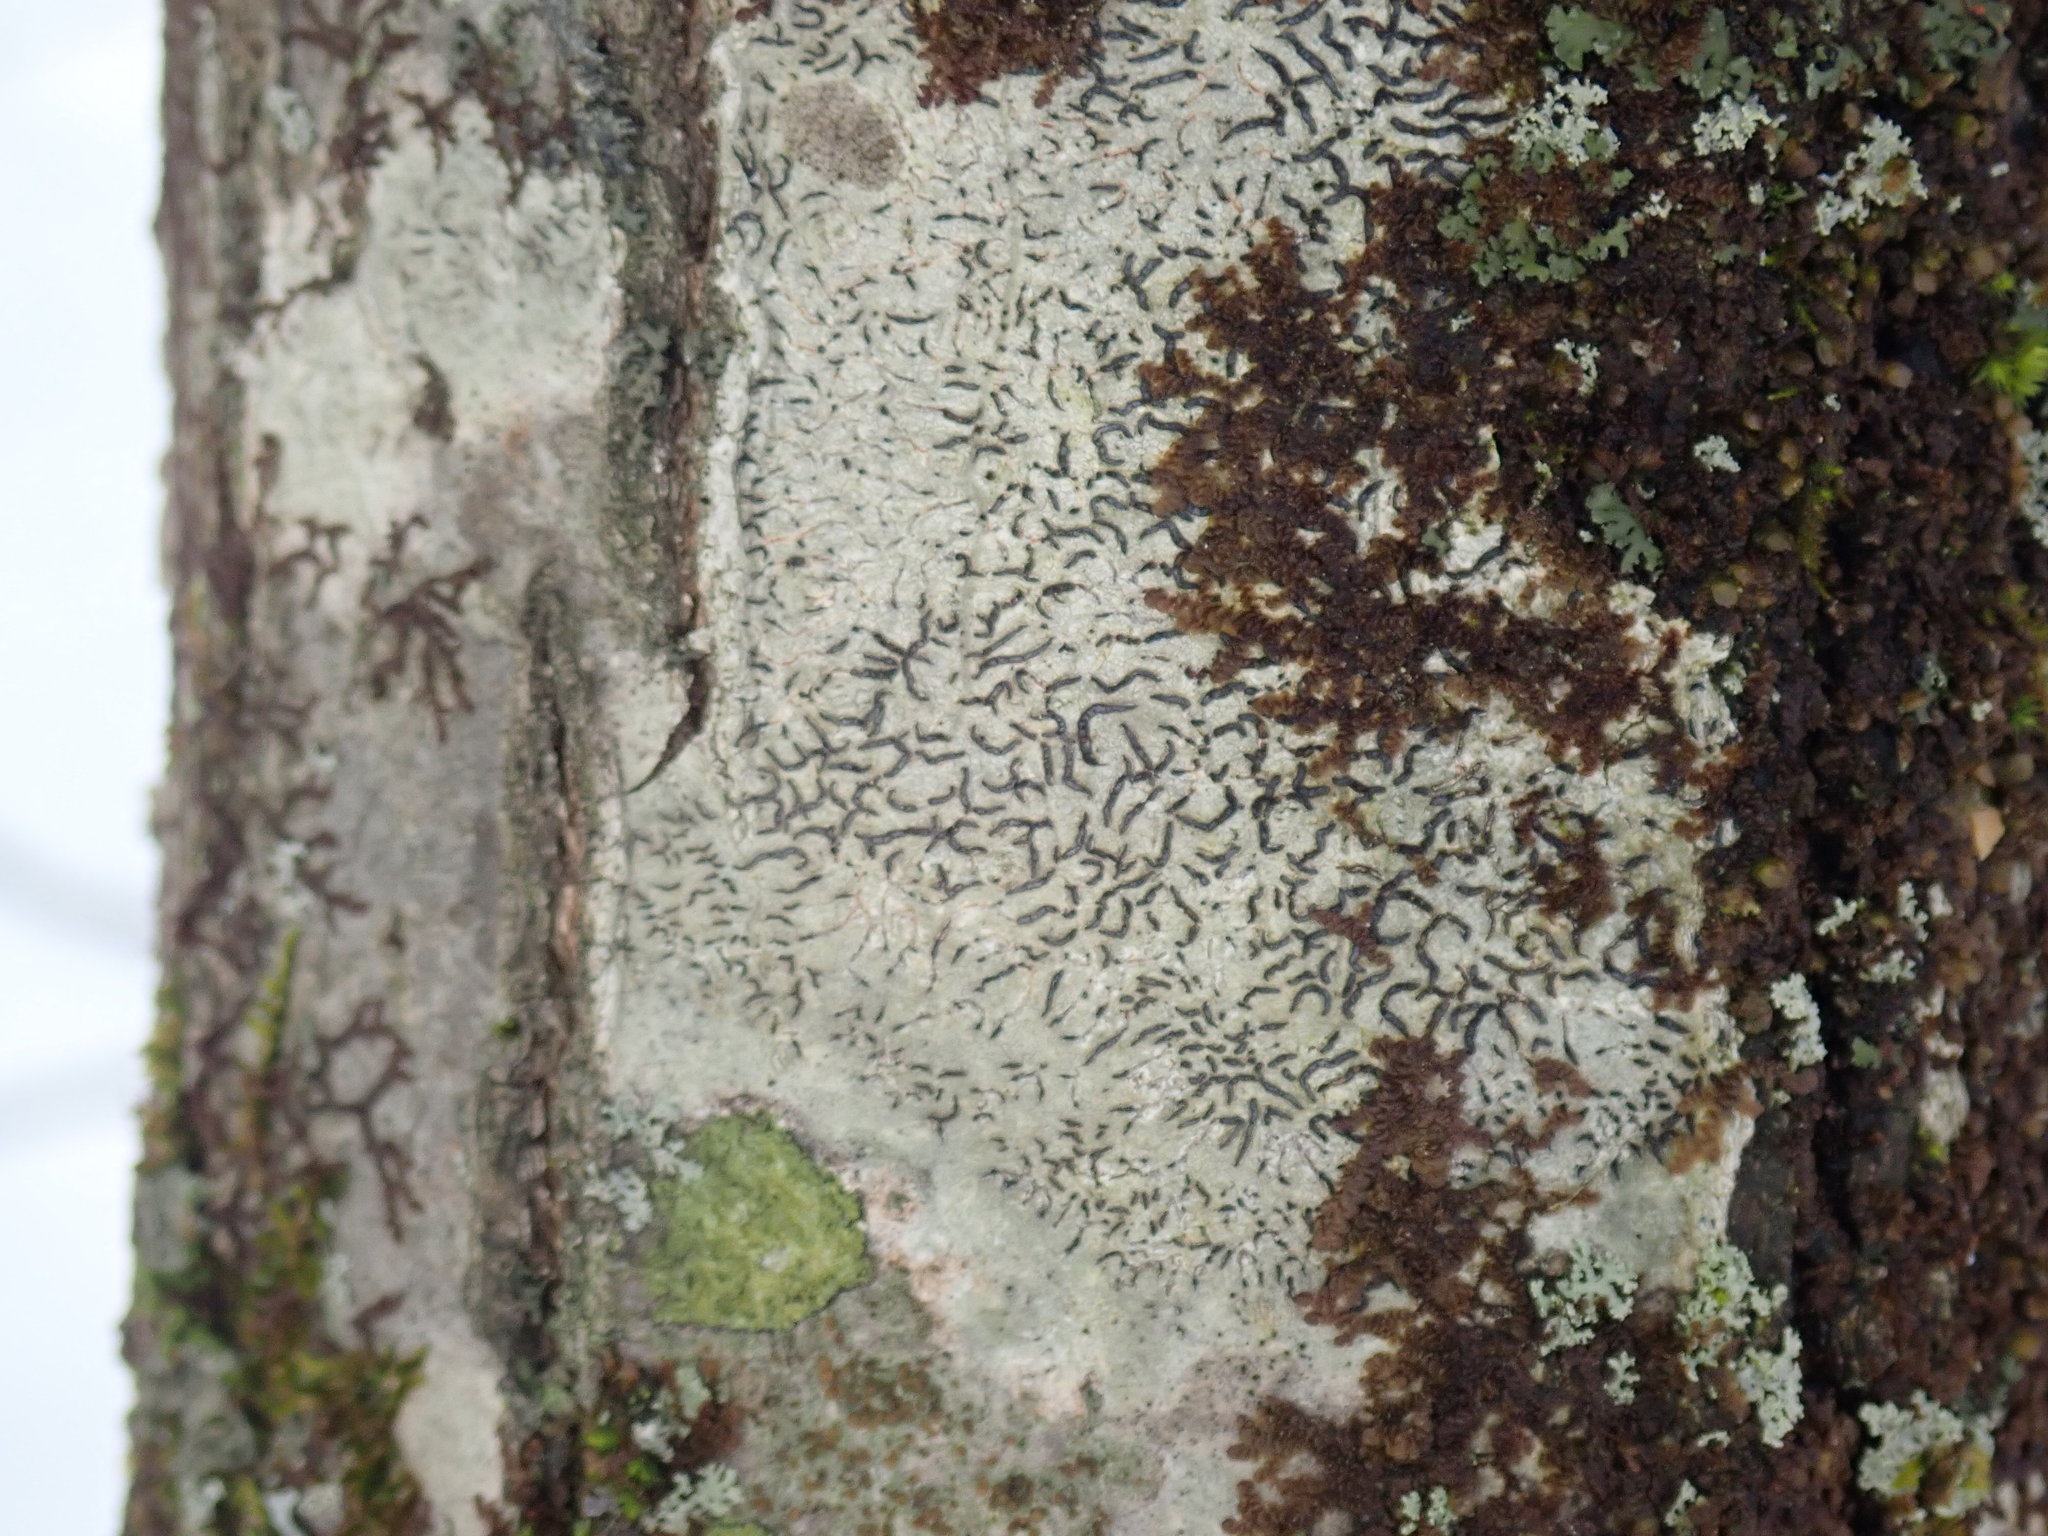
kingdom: Fungi
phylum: Ascomycota
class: Lecanoromycetes
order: Ostropales
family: Graphidaceae
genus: Graphis
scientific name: Graphis scripta
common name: Script lichen
